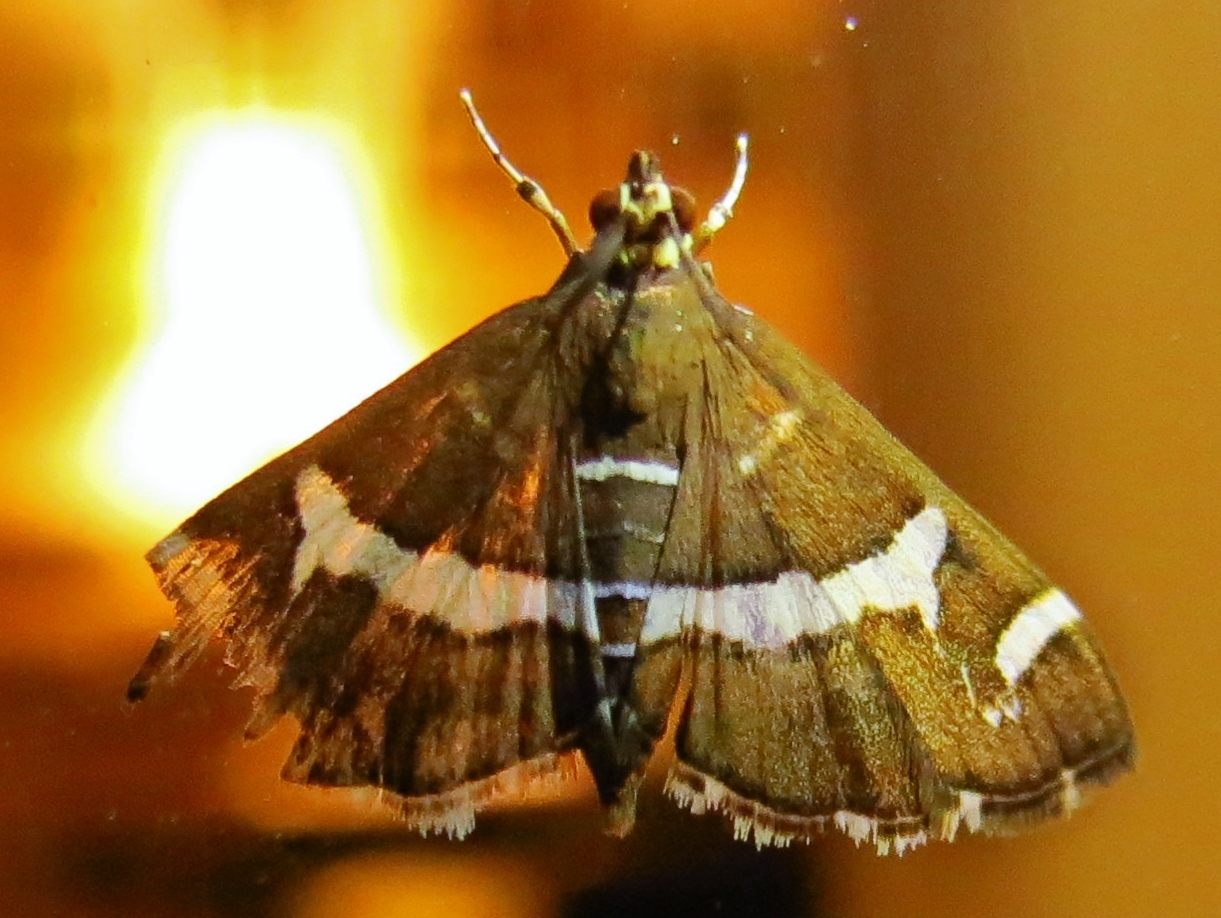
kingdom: Animalia
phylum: Arthropoda
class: Insecta
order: Lepidoptera
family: Crambidae
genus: Spoladea
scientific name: Spoladea recurvalis
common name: Beet webworm moth
